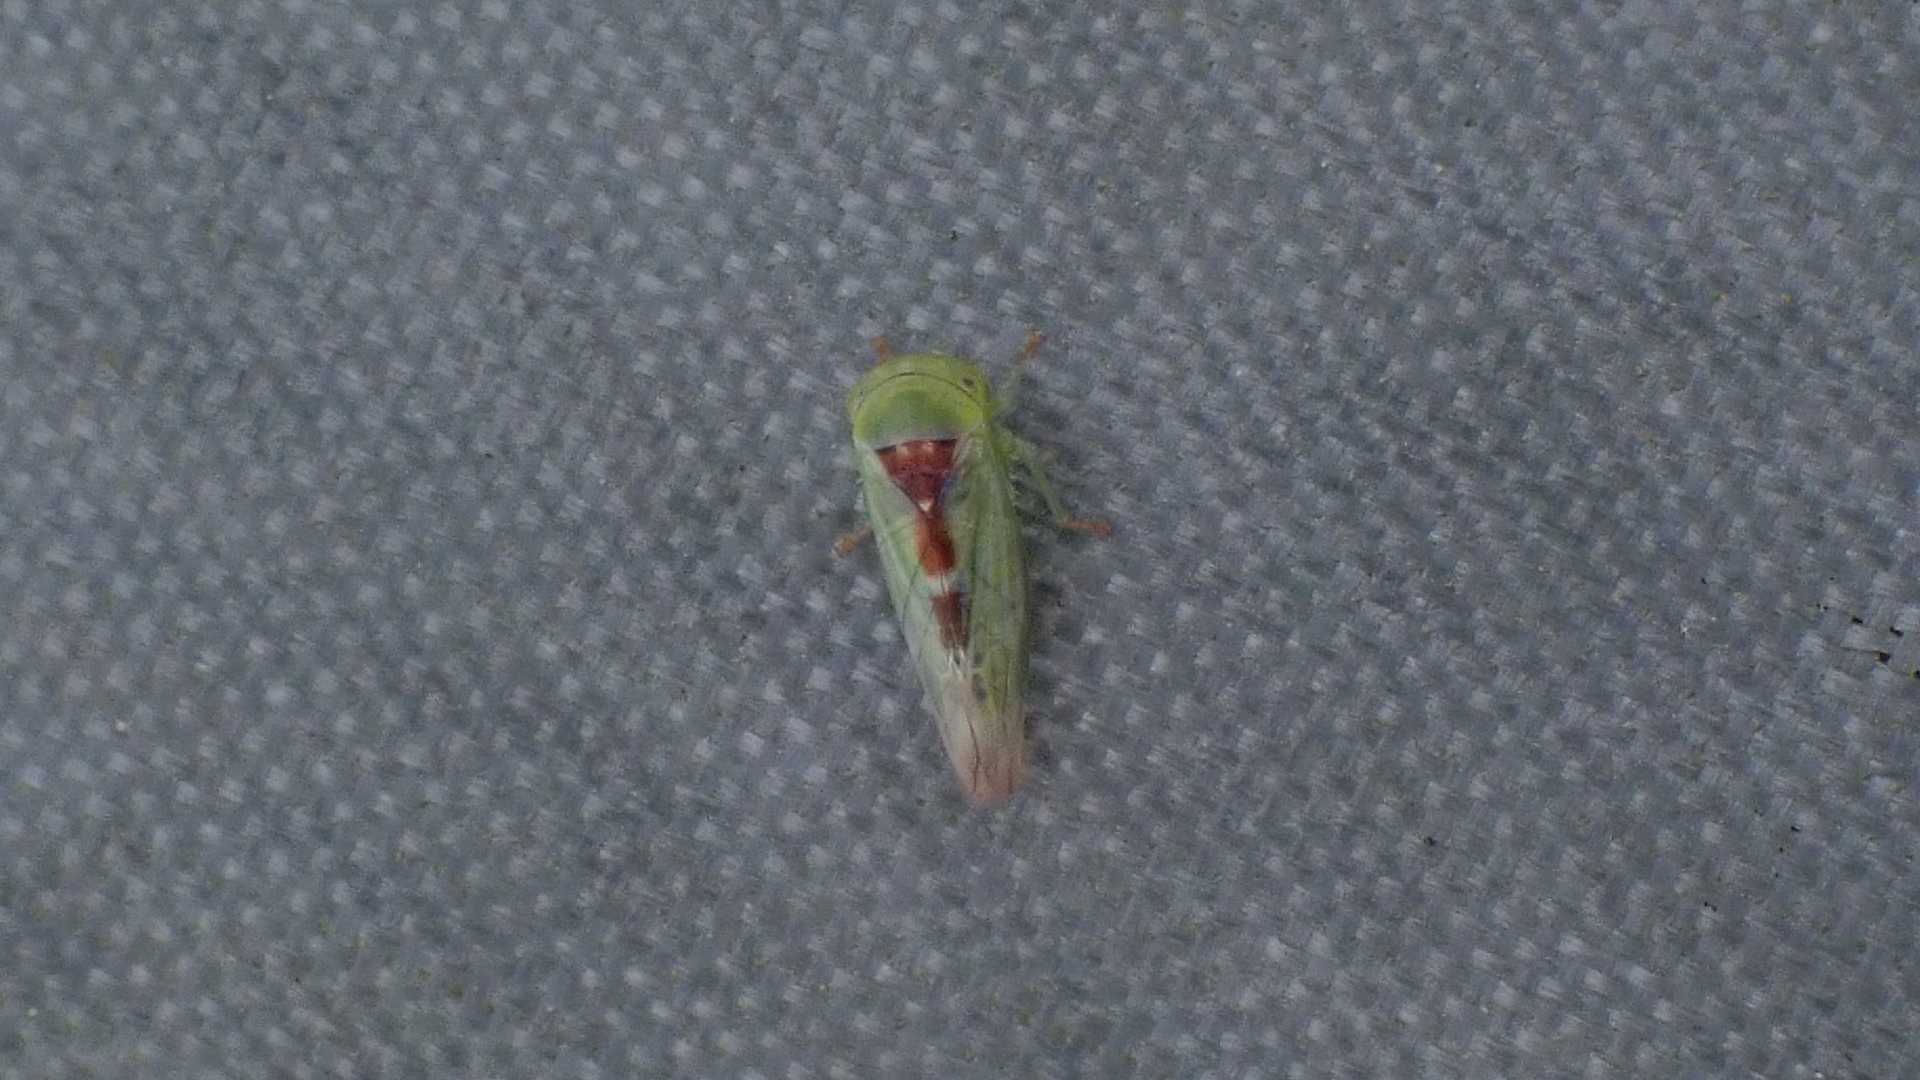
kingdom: Animalia
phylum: Arthropoda
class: Insecta
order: Hemiptera
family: Cicadellidae
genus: Viridicerus
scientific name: Viridicerus ustulatus
